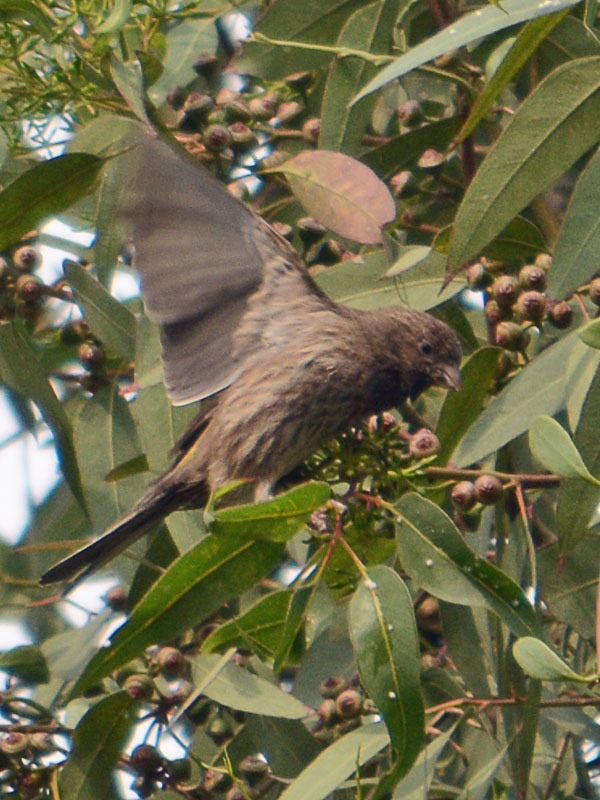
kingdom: Animalia
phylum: Chordata
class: Aves
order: Passeriformes
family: Fringillidae
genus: Haemorhous
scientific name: Haemorhous mexicanus
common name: House finch
